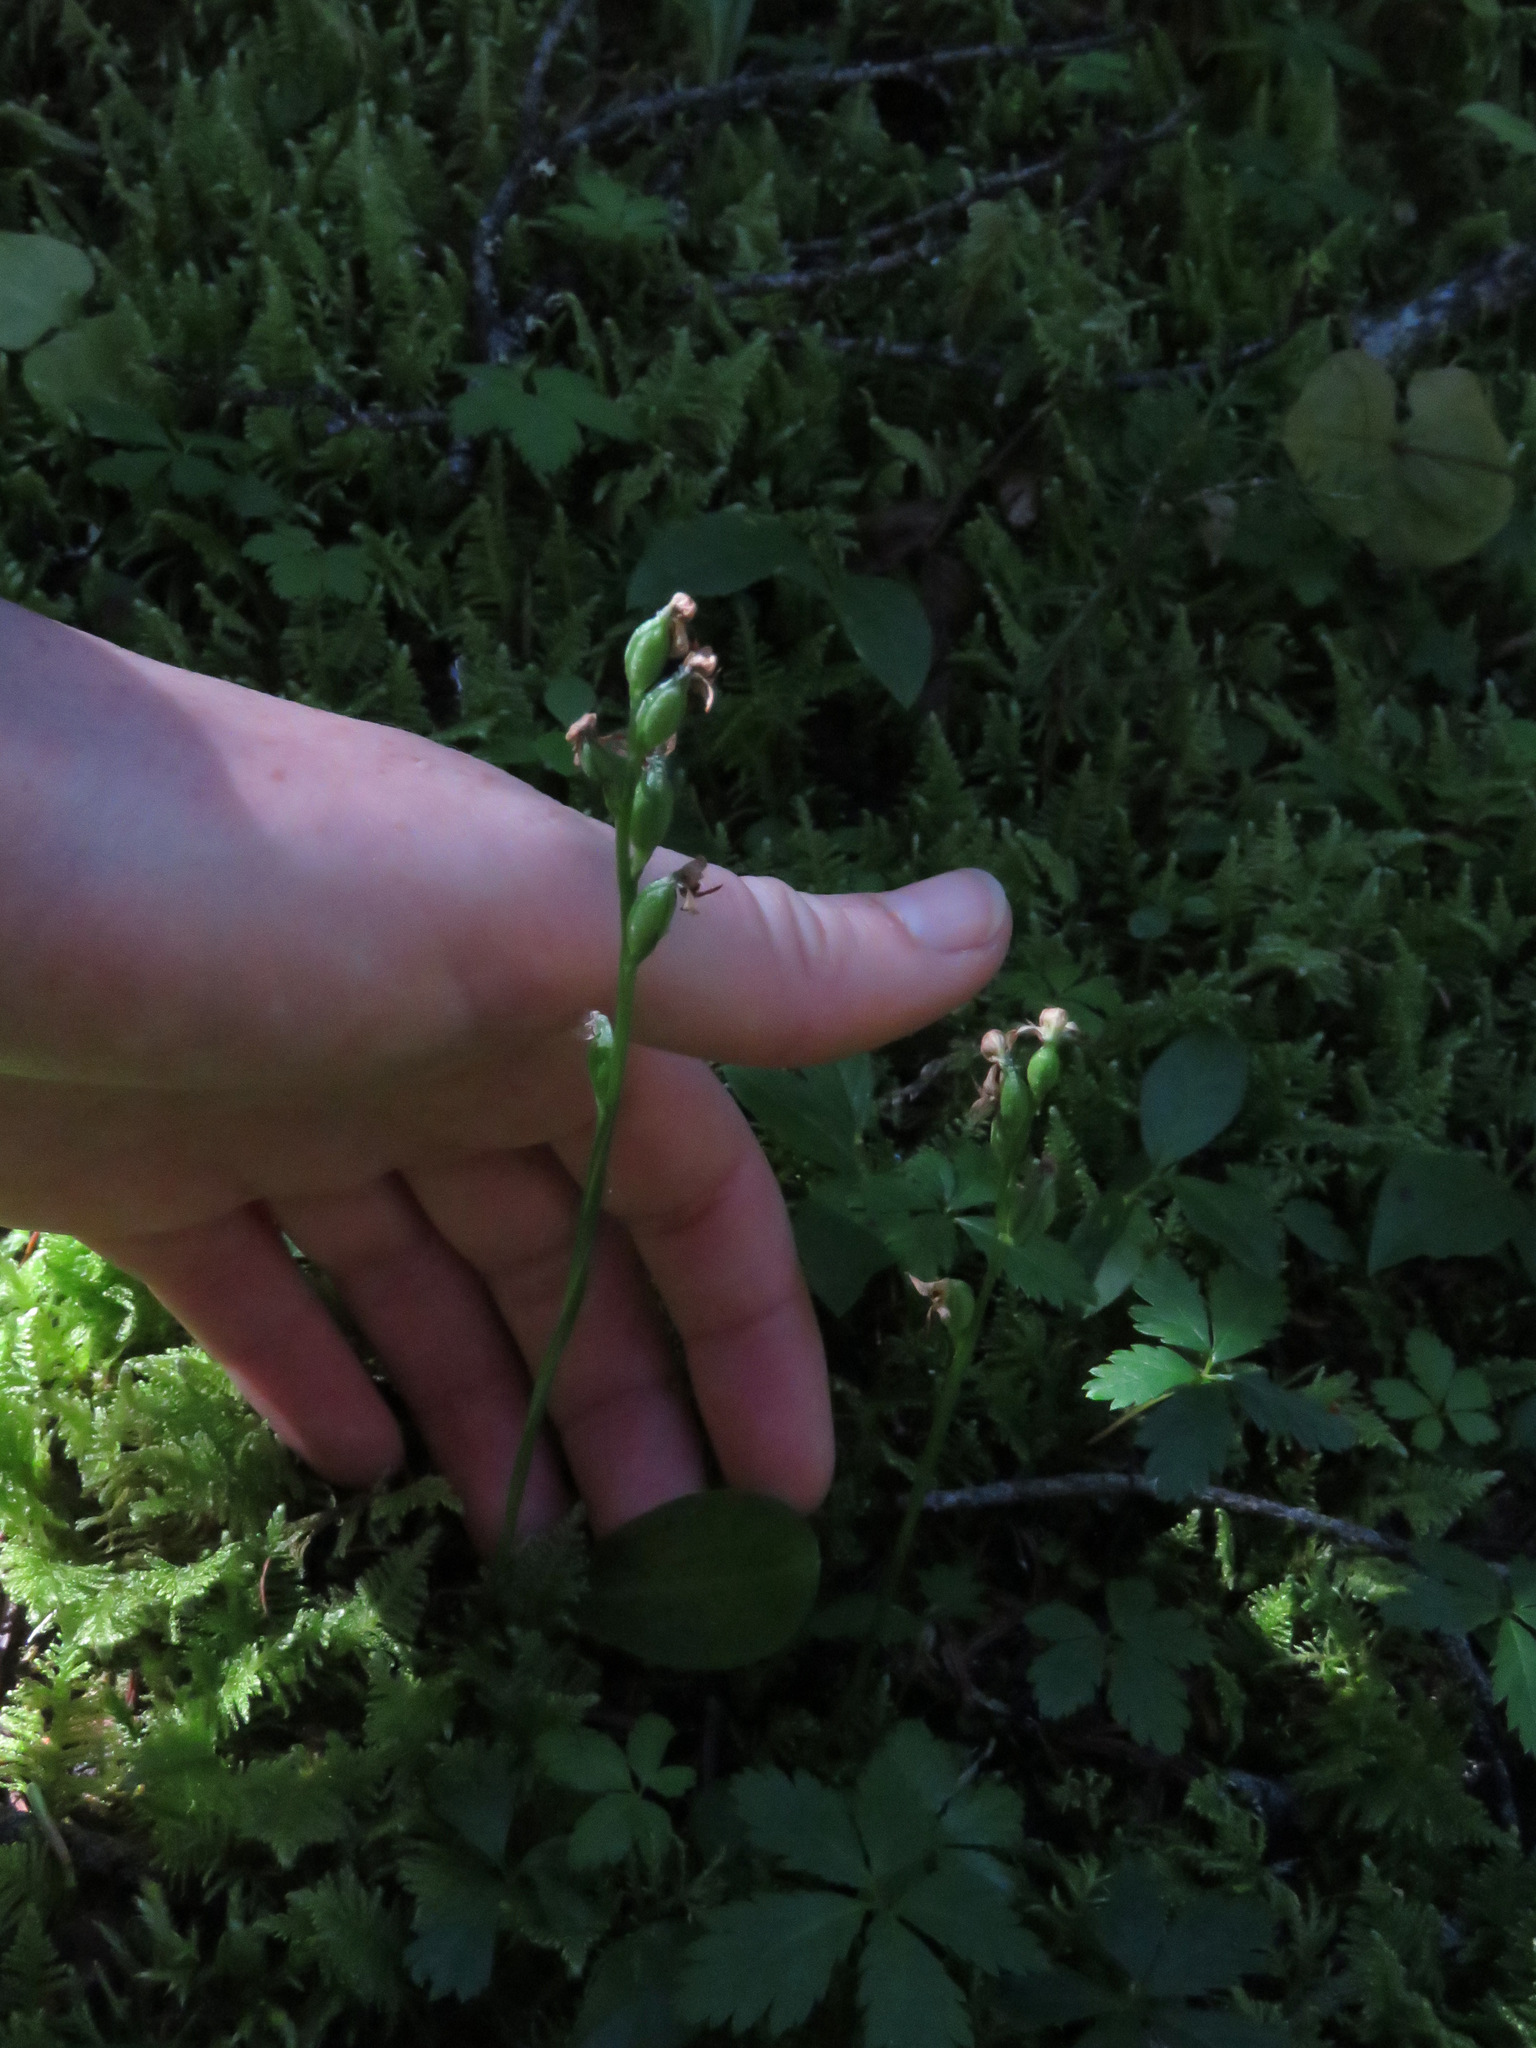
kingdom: Plantae
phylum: Tracheophyta
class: Liliopsida
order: Asparagales
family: Orchidaceae
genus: Platanthera
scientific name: Platanthera obtusata
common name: Blunt bog orchid
